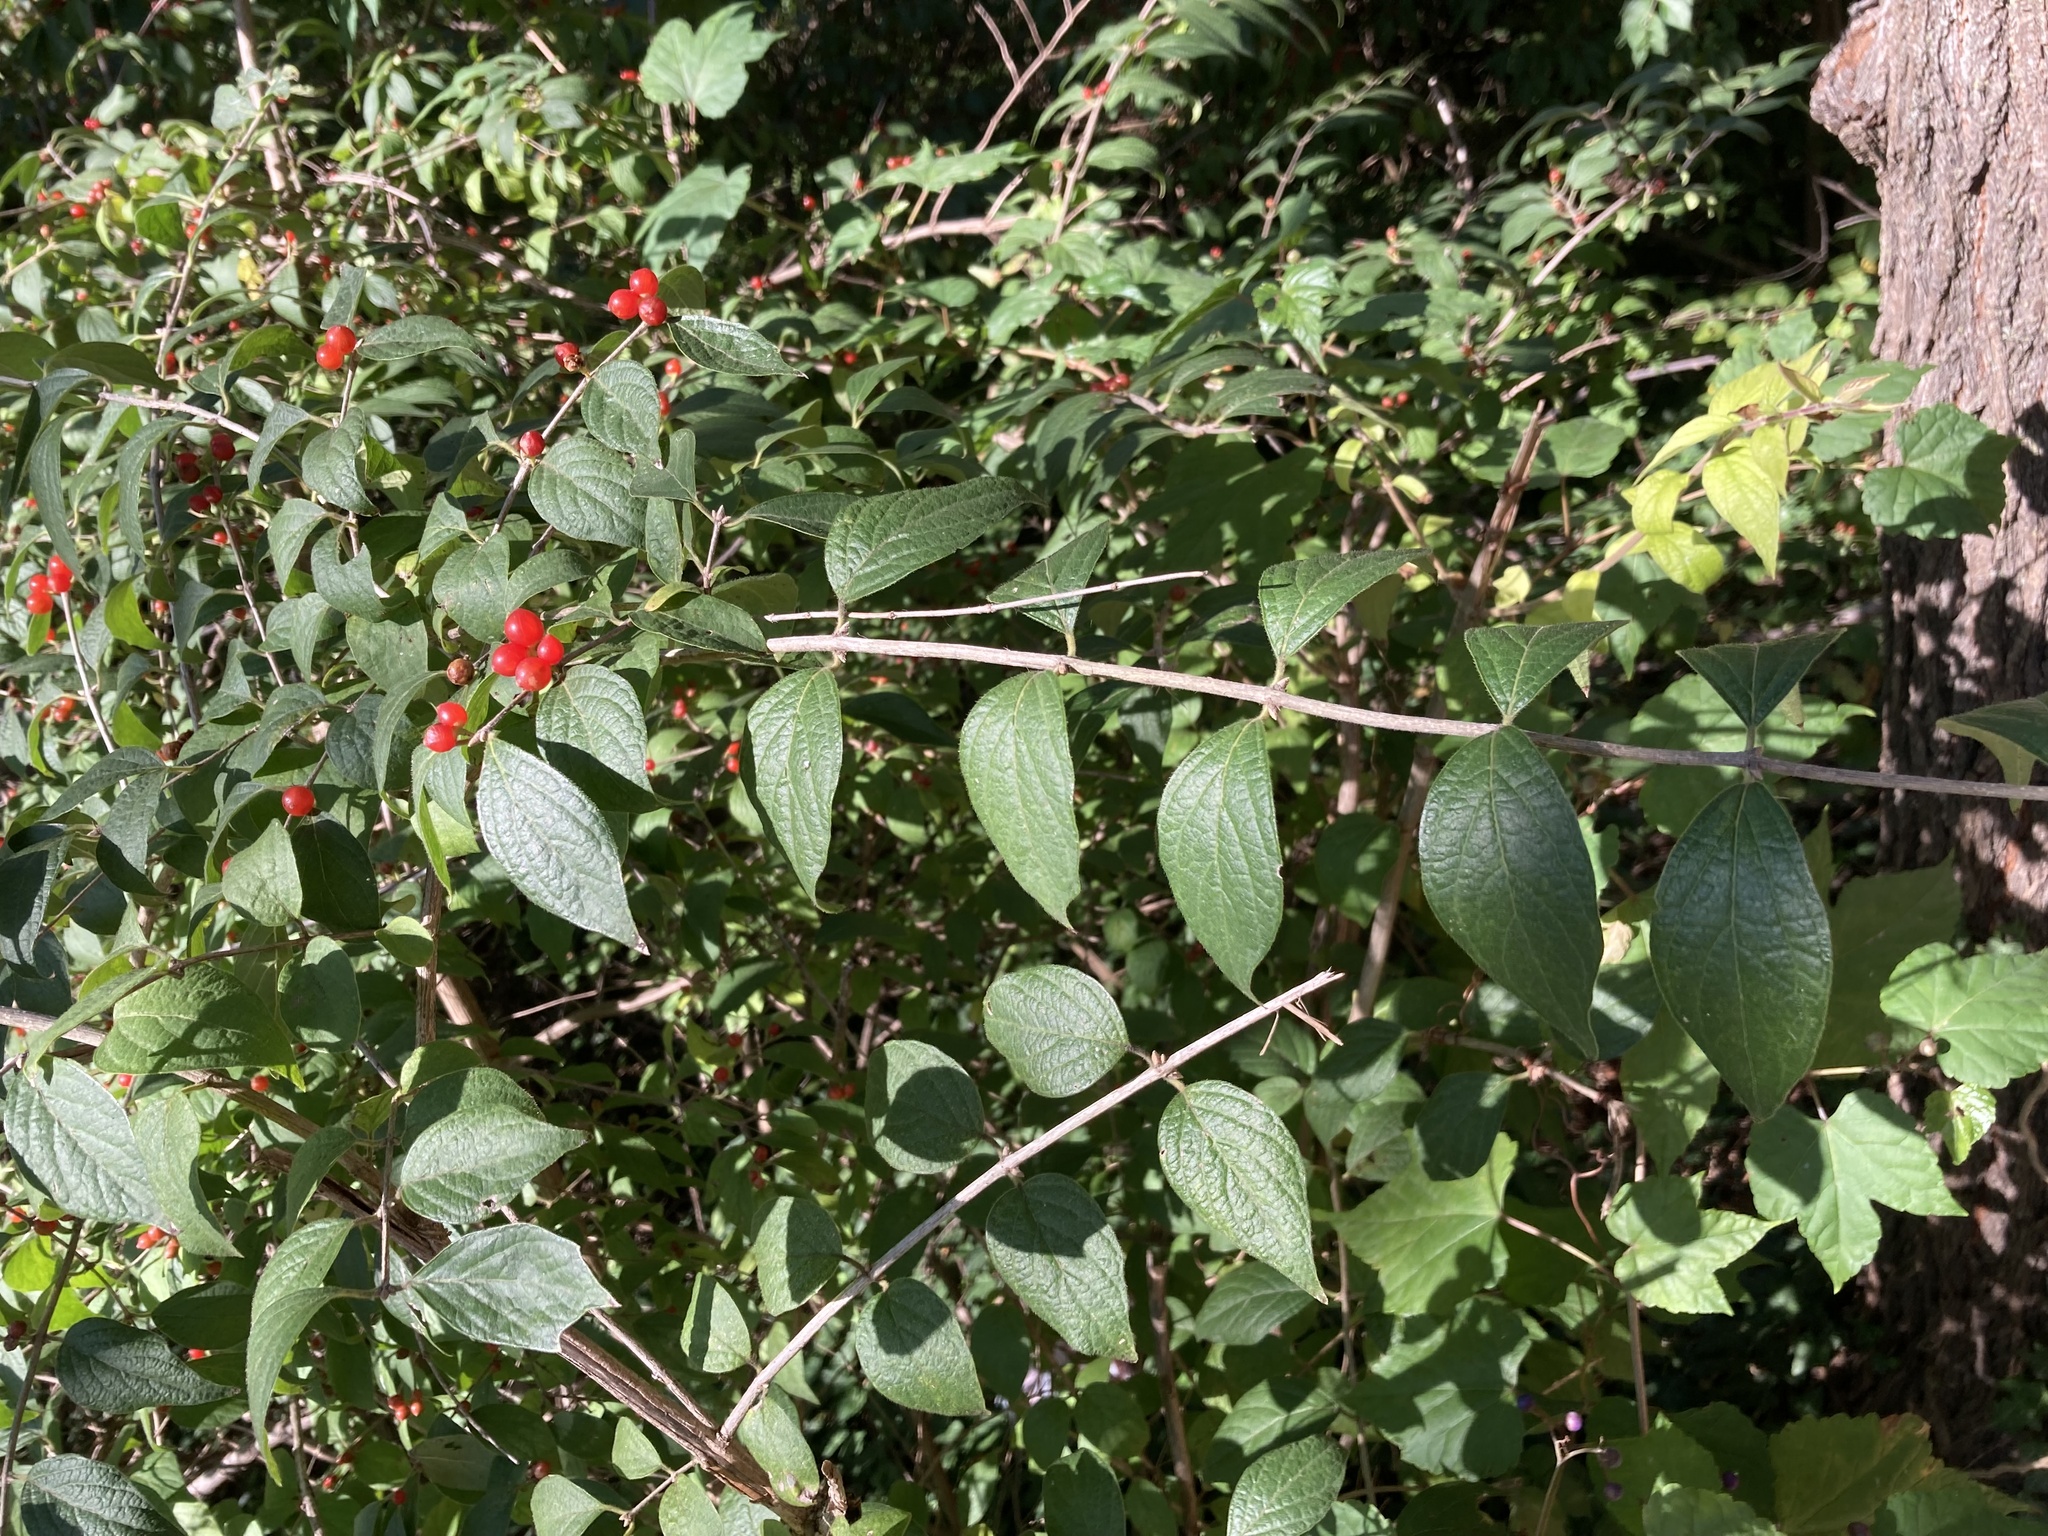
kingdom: Plantae
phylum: Tracheophyta
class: Magnoliopsida
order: Dipsacales
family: Caprifoliaceae
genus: Lonicera
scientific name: Lonicera maackii
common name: Amur honeysuckle
